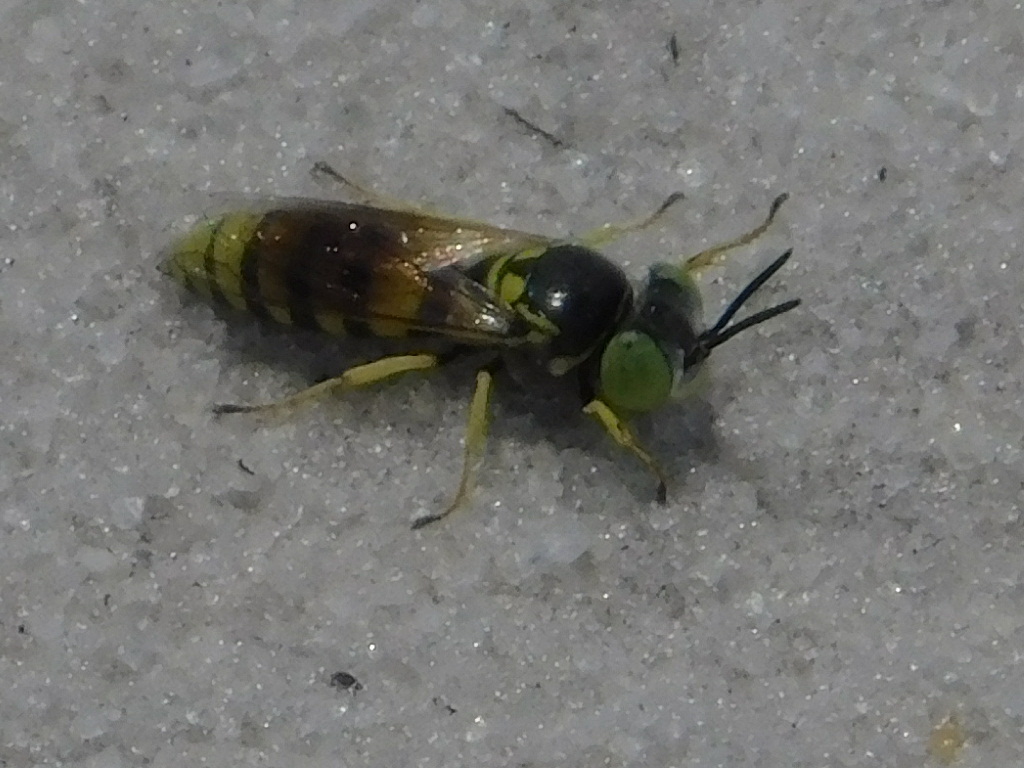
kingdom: Animalia
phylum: Arthropoda
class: Insecta
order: Hymenoptera
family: Crabronidae
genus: Microbembex
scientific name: Microbembex monodonta
